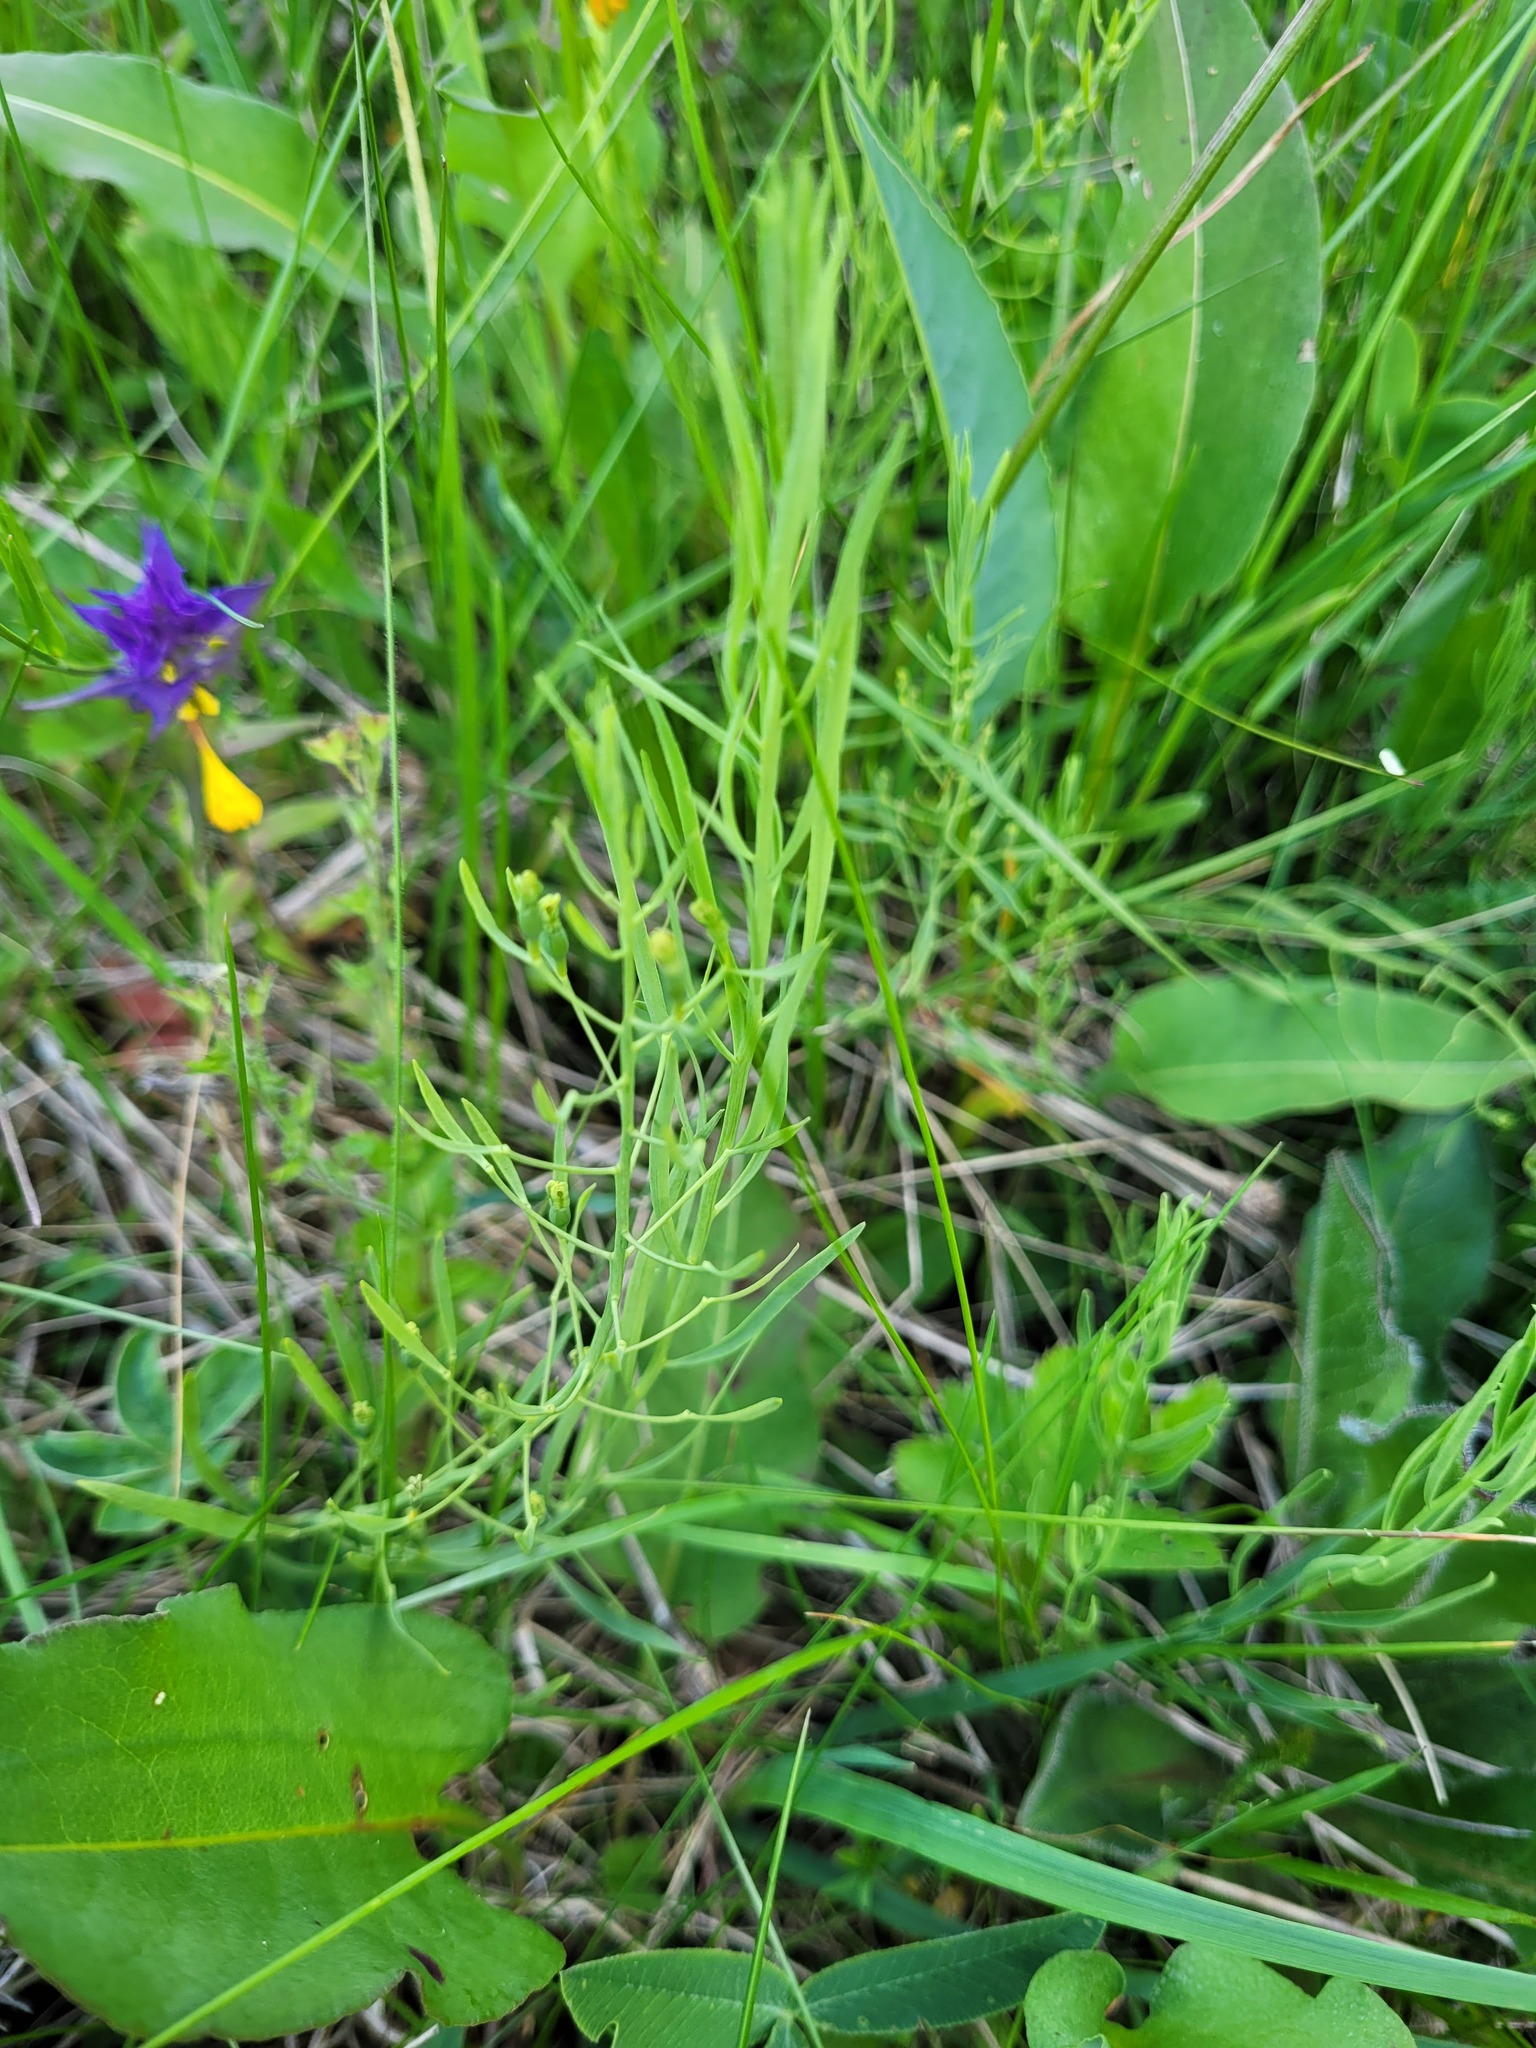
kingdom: Plantae
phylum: Tracheophyta
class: Magnoliopsida
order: Santalales
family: Thesiaceae
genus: Thesium
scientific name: Thesium ebracteatum
